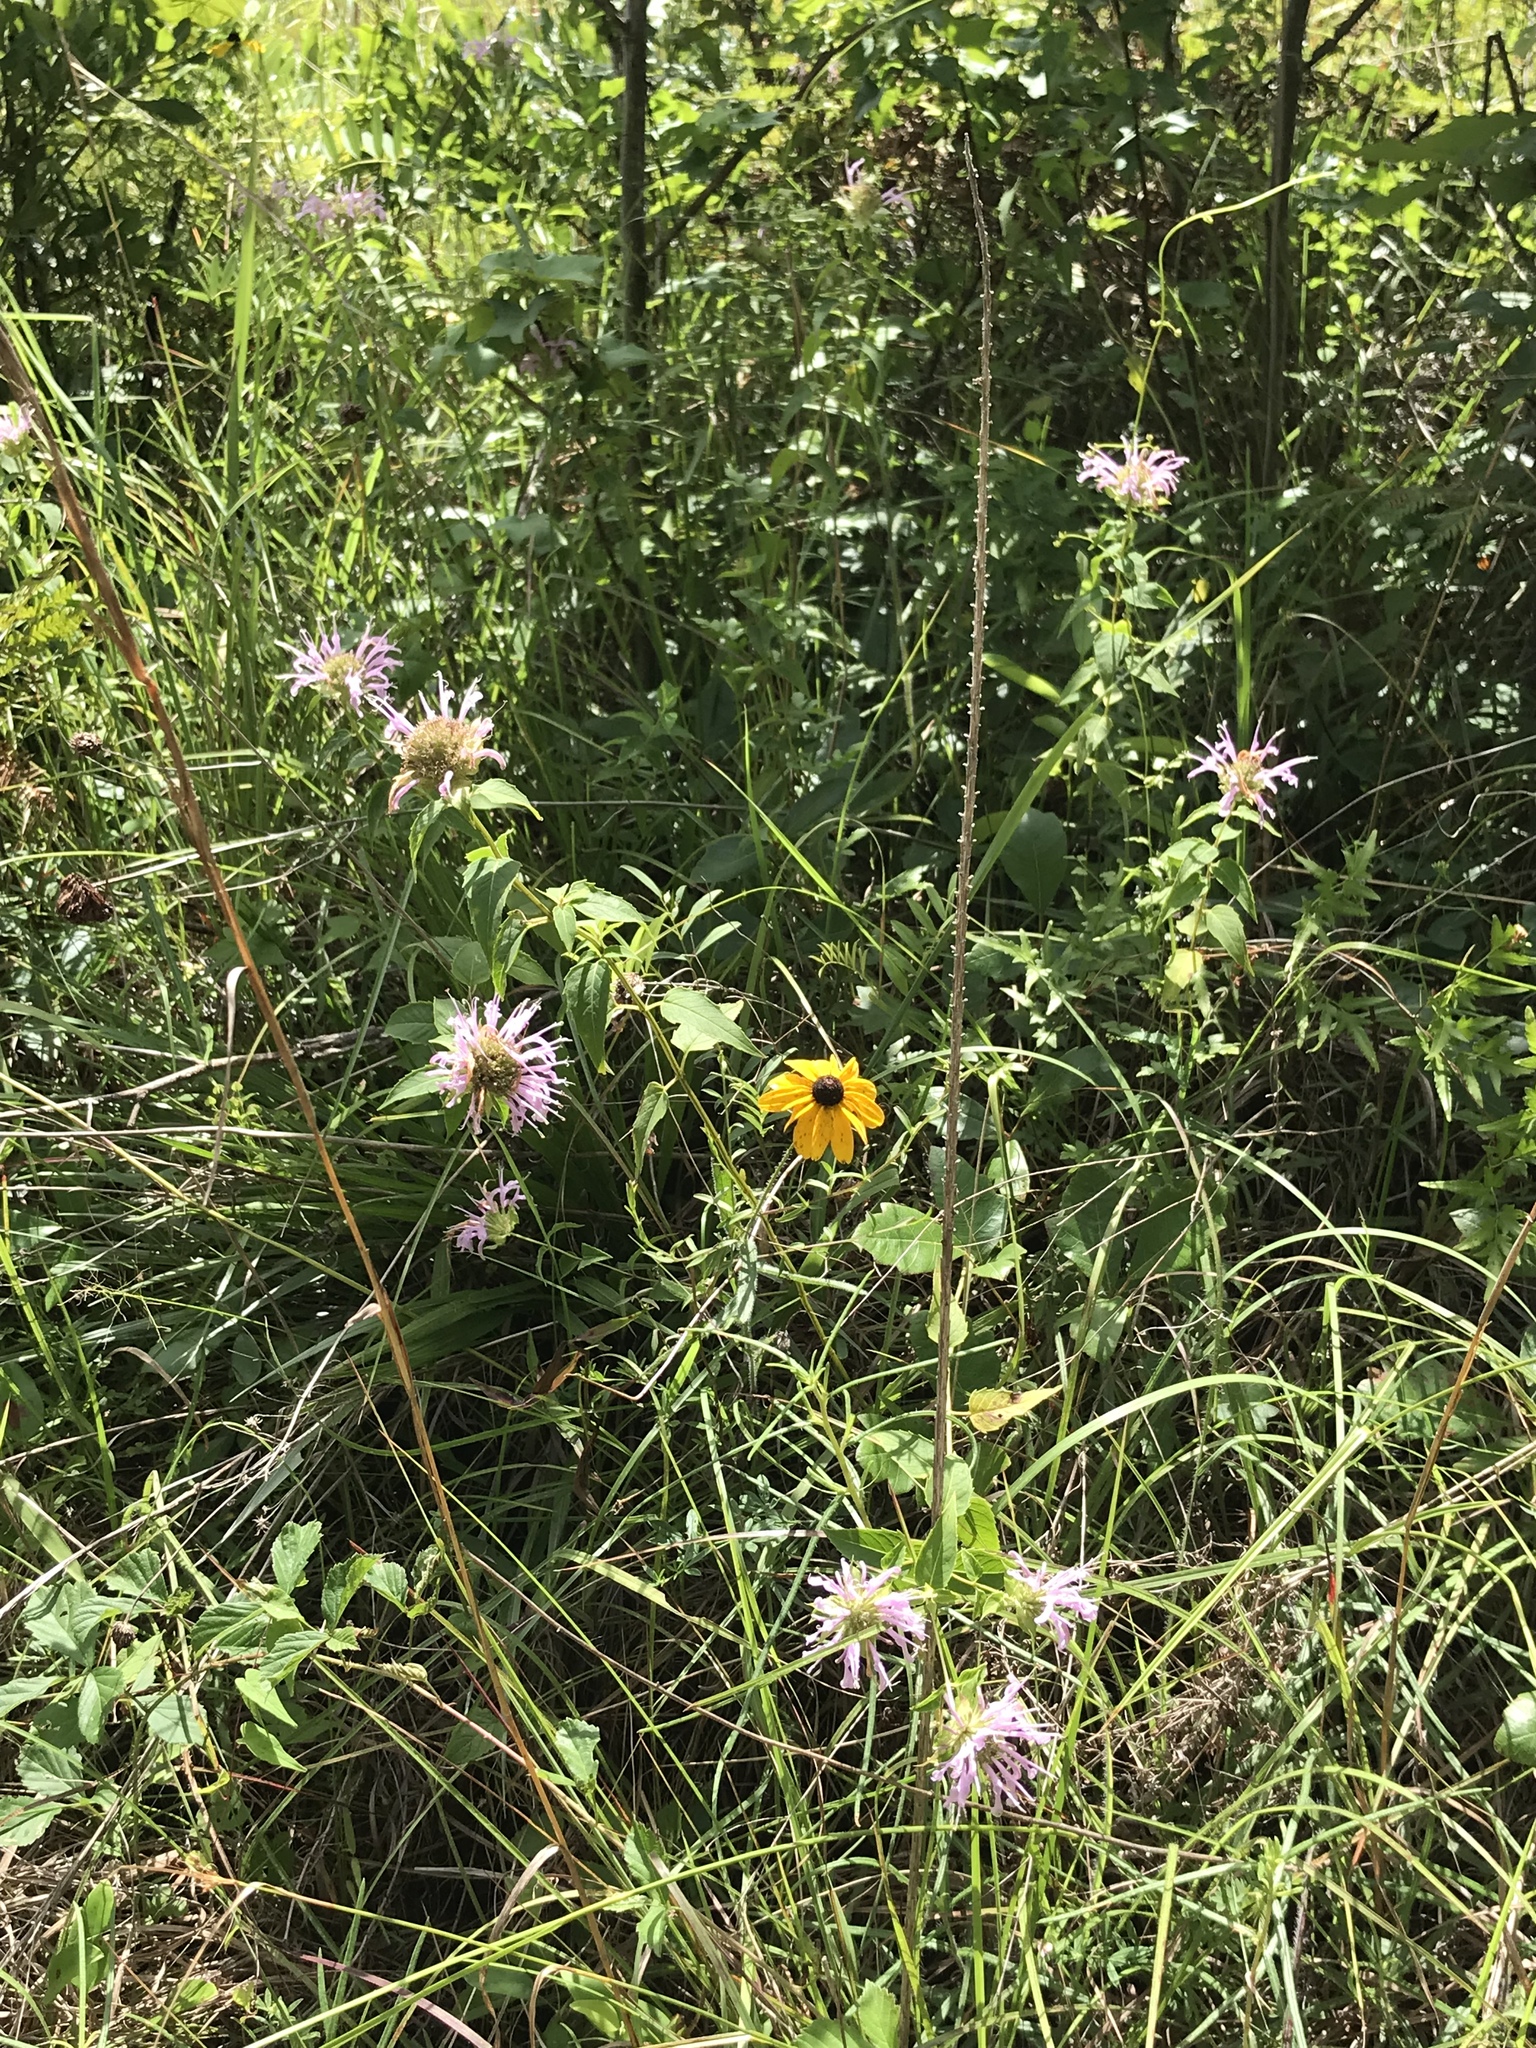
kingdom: Plantae
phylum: Tracheophyta
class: Magnoliopsida
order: Lamiales
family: Lamiaceae
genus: Monarda
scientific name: Monarda fistulosa
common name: Purple beebalm
